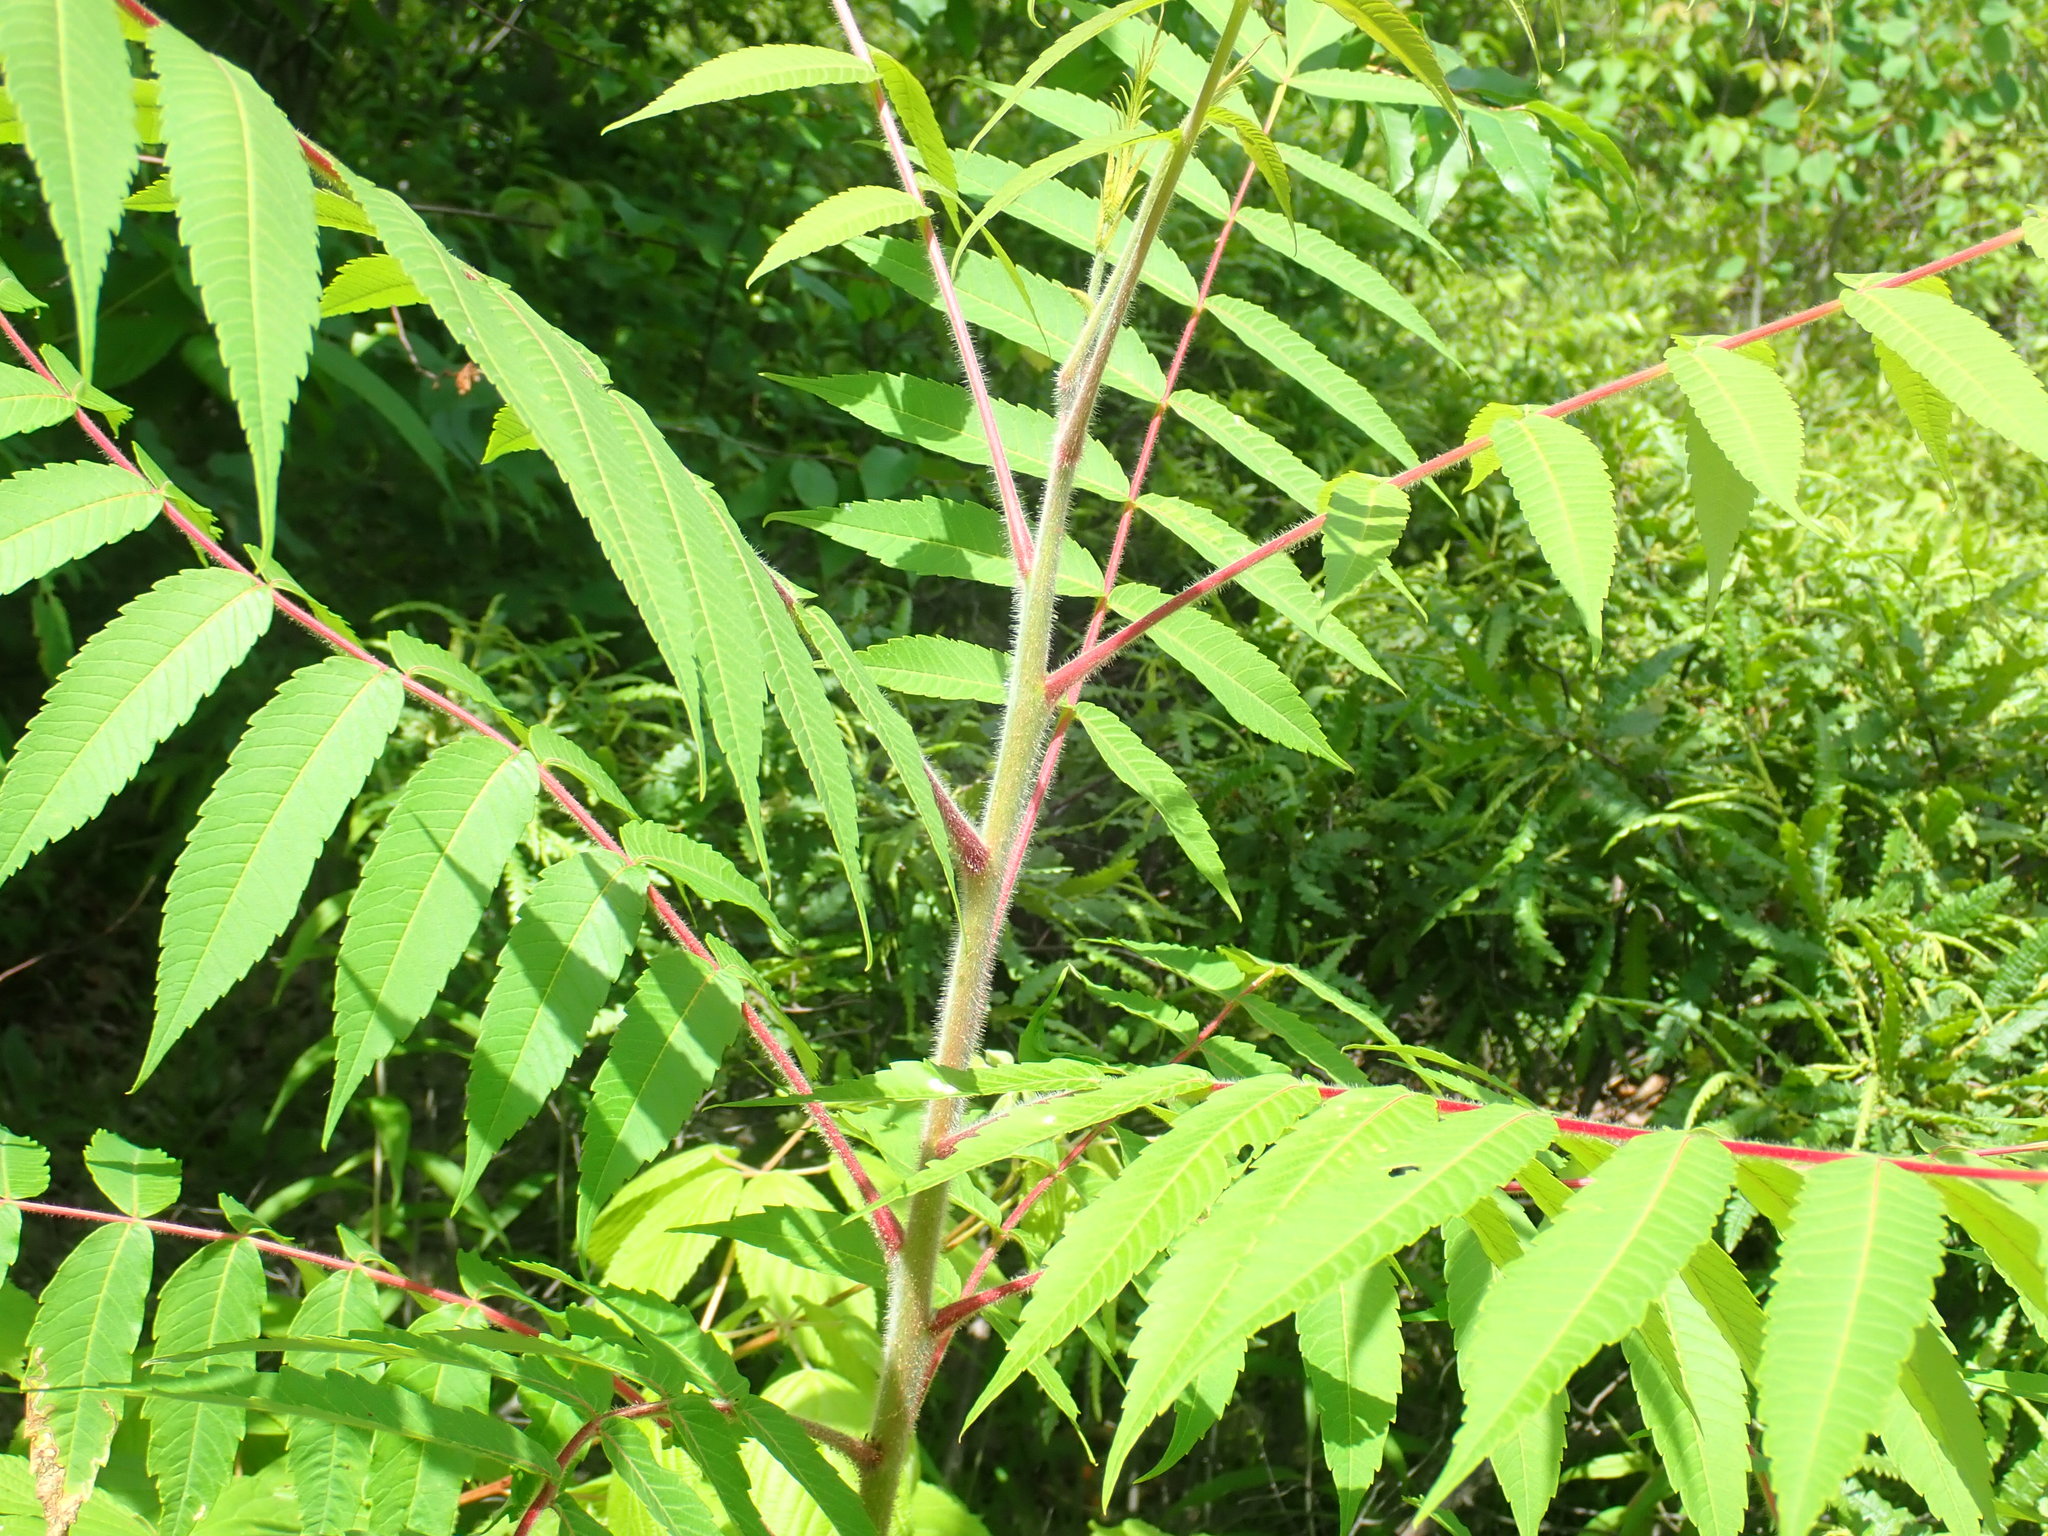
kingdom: Plantae
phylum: Tracheophyta
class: Magnoliopsida
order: Sapindales
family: Anacardiaceae
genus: Rhus
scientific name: Rhus typhina
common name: Staghorn sumac
